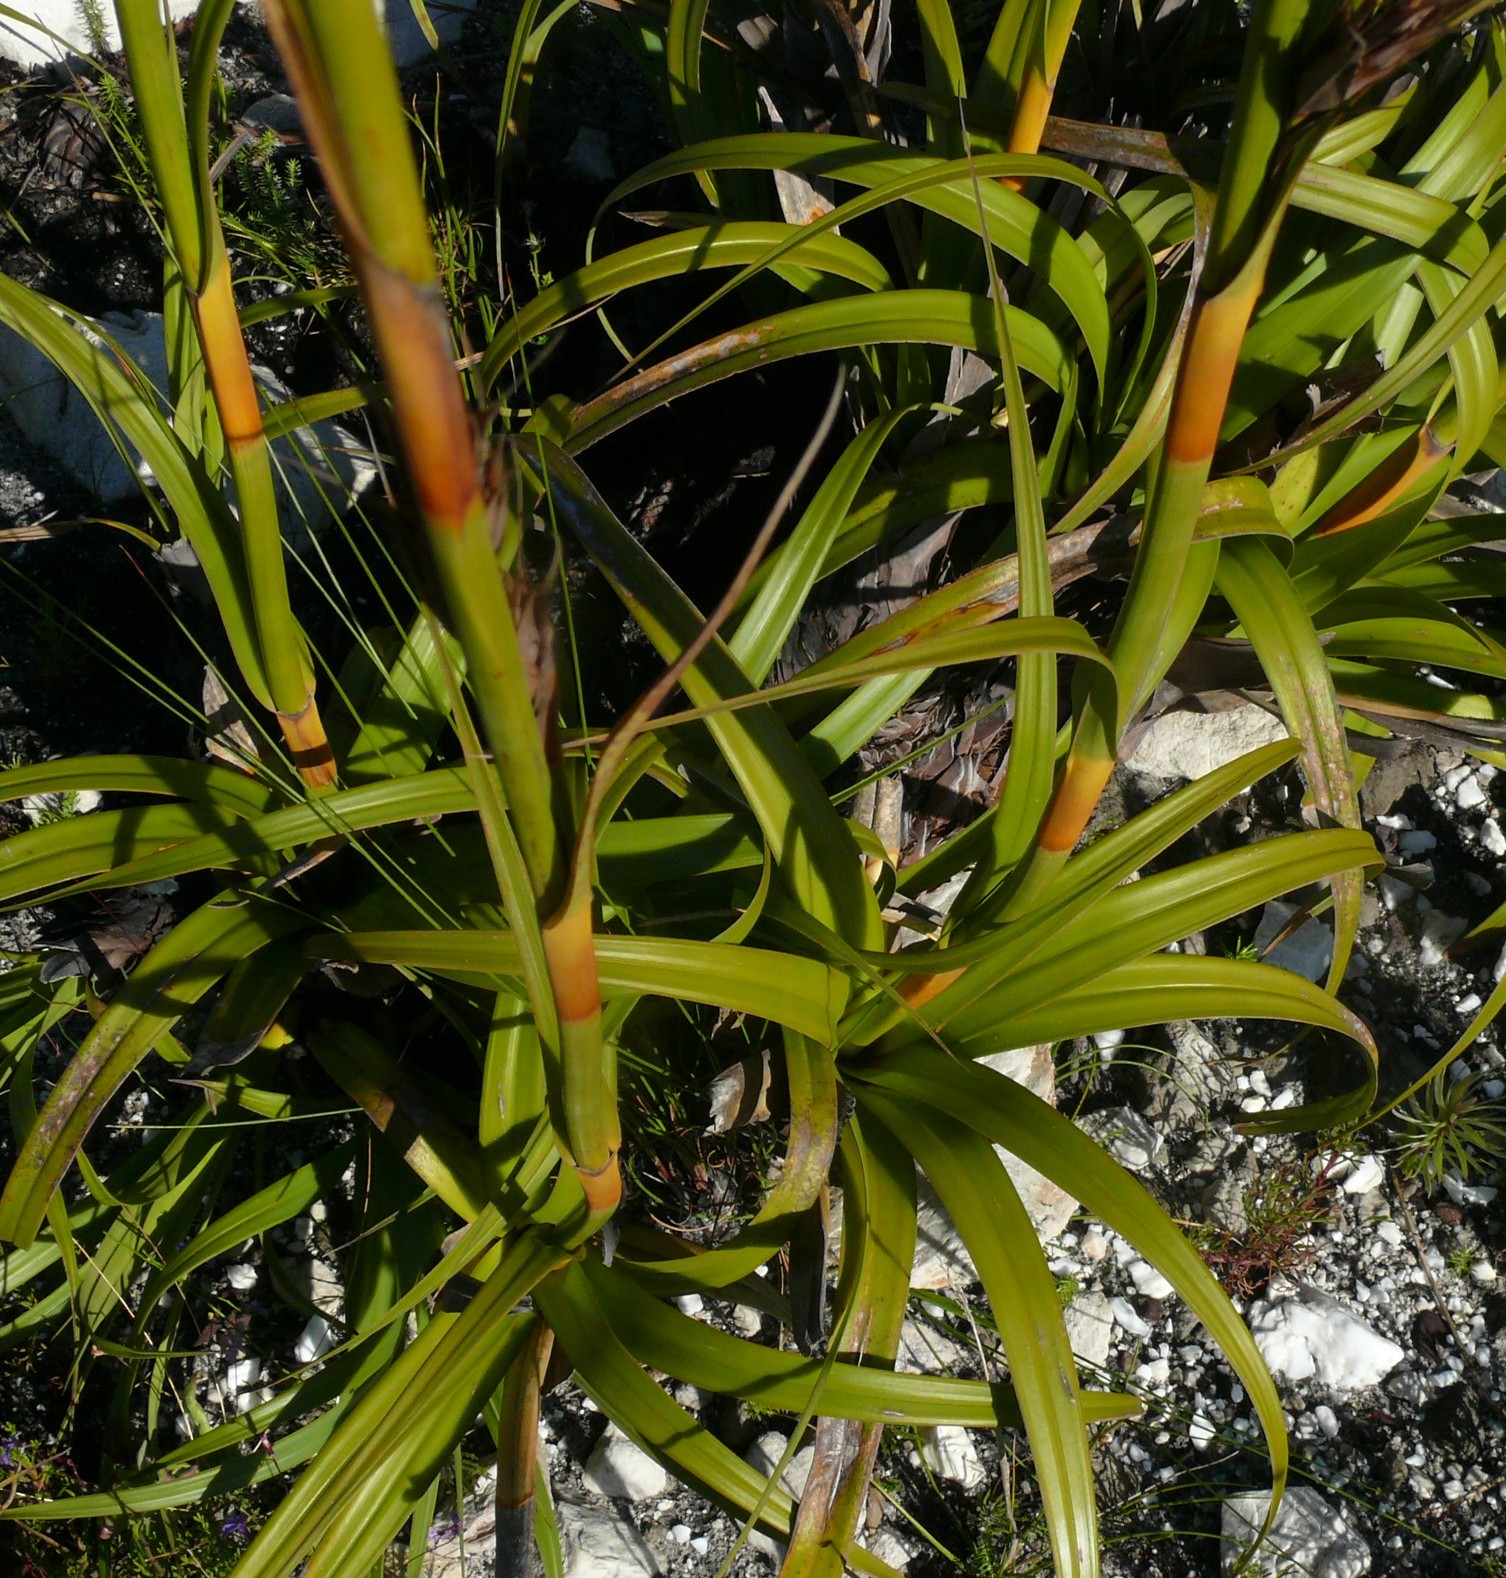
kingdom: Plantae
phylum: Tracheophyta
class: Liliopsida
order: Poales
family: Cyperaceae
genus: Tetraria
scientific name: Tetraria thermalis
